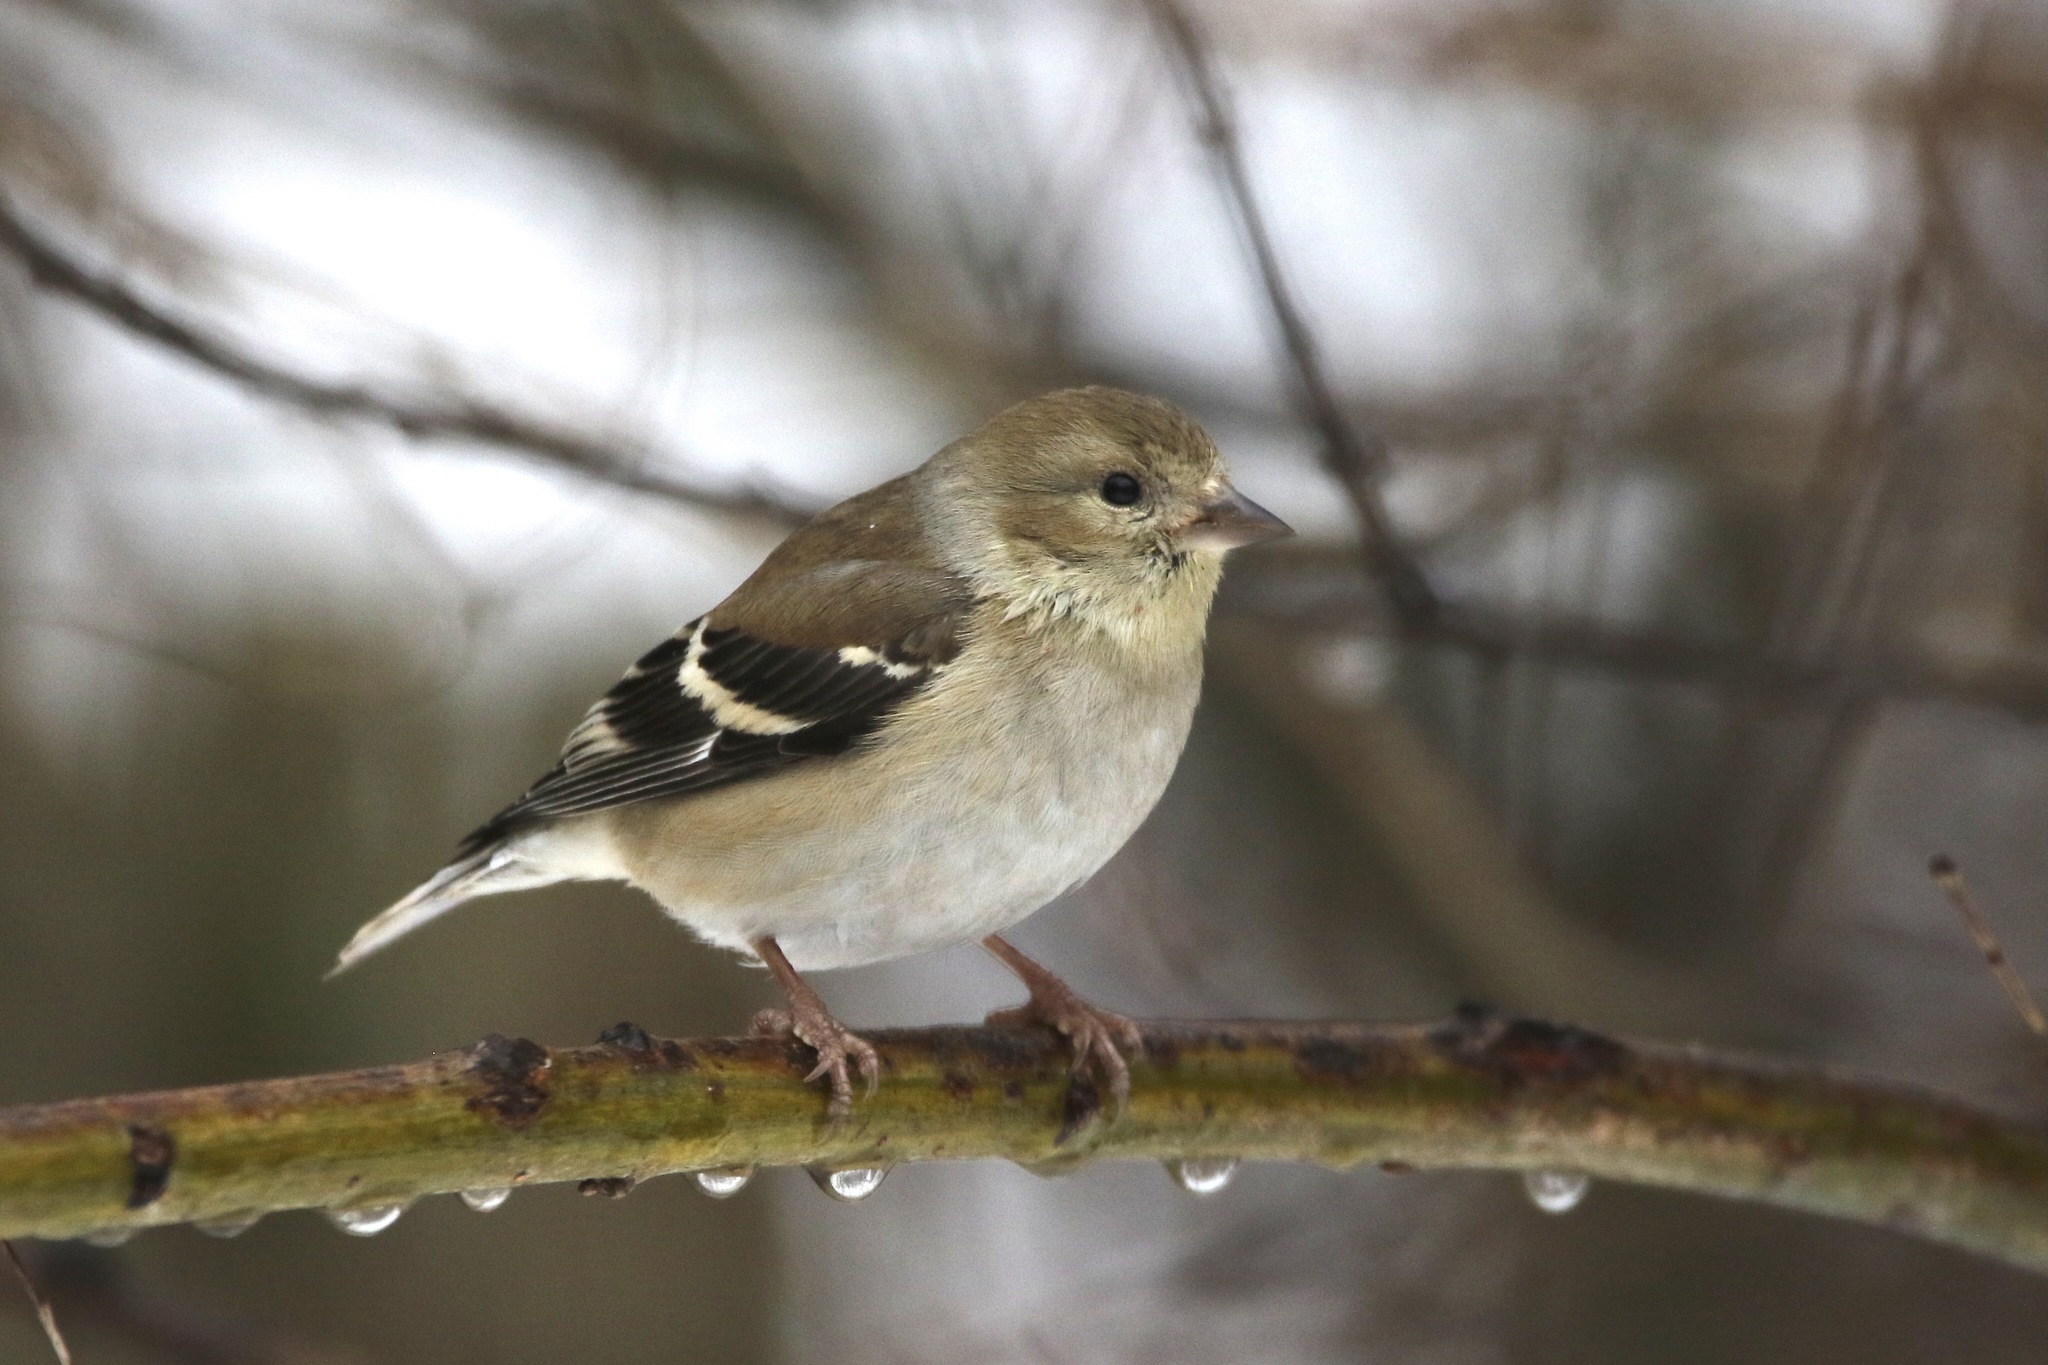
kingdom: Animalia
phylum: Chordata
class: Aves
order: Passeriformes
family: Fringillidae
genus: Spinus
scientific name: Spinus tristis
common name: American goldfinch
